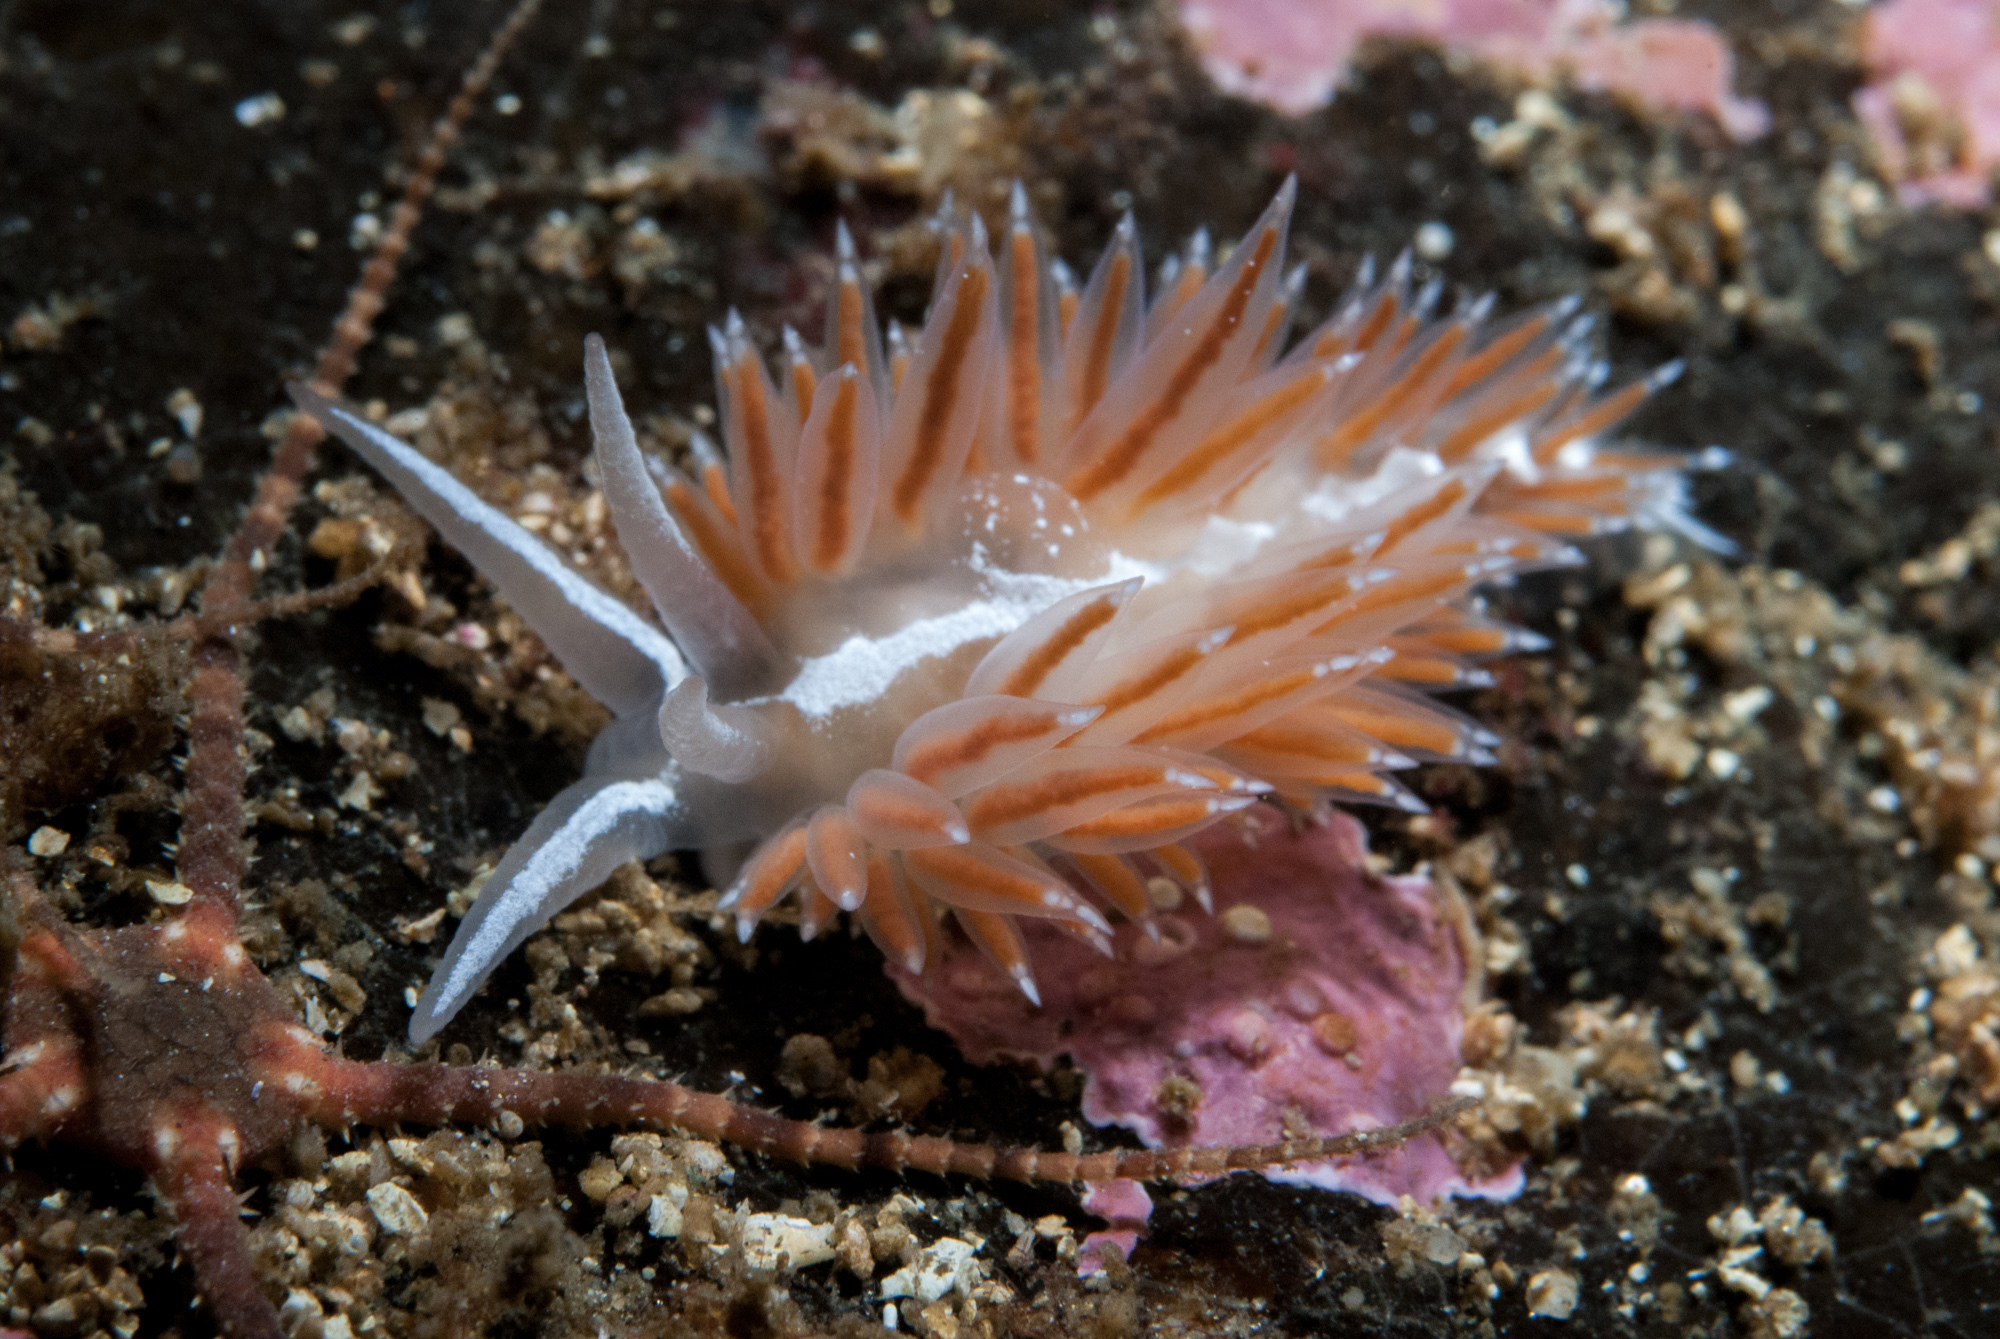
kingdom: Animalia
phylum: Mollusca
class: Gastropoda
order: Nudibranchia
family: Coryphellidae
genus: Coryphella
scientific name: Coryphella orjani
